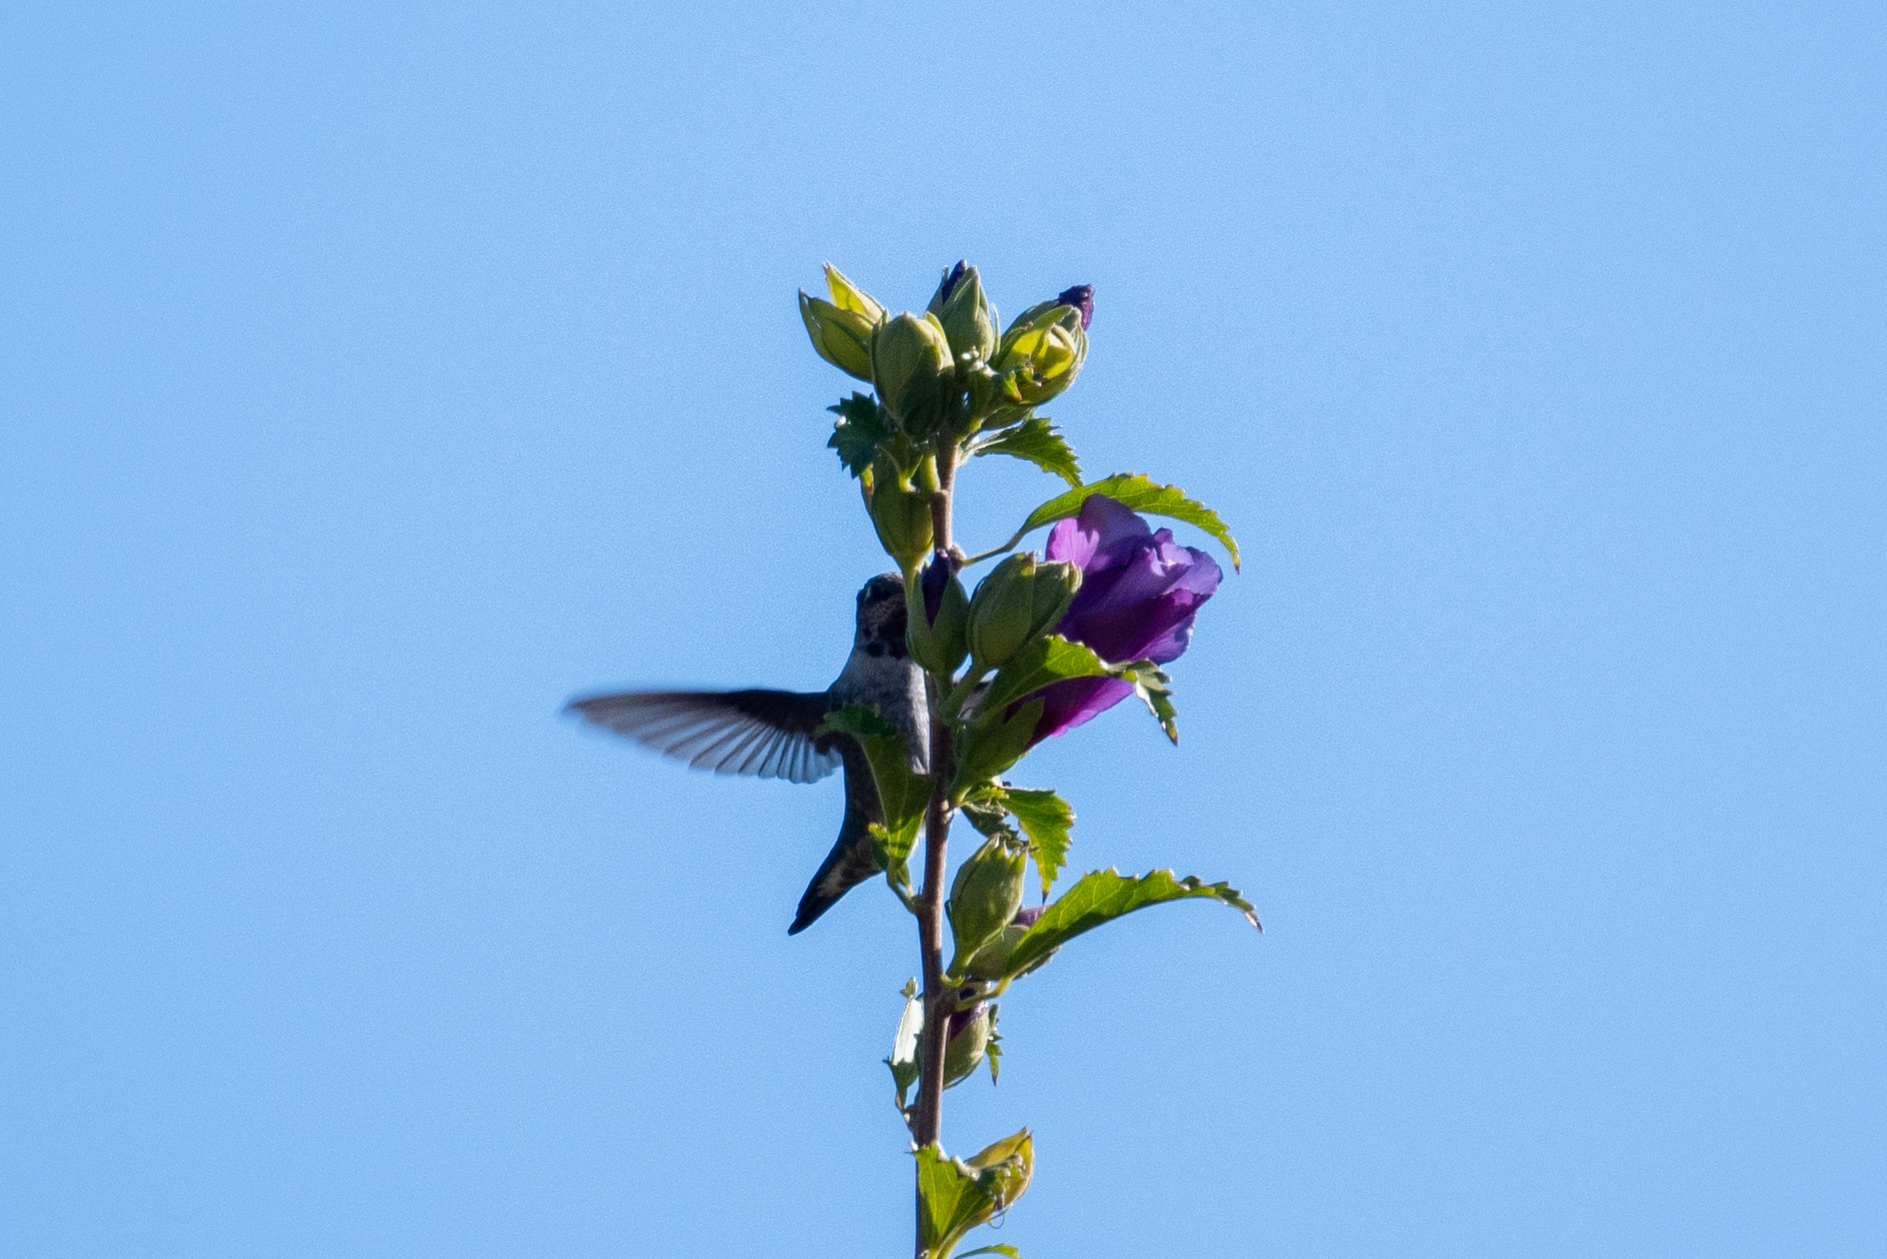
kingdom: Animalia
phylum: Chordata
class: Aves
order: Apodiformes
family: Trochilidae
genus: Calypte
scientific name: Calypte anna
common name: Anna's hummingbird
